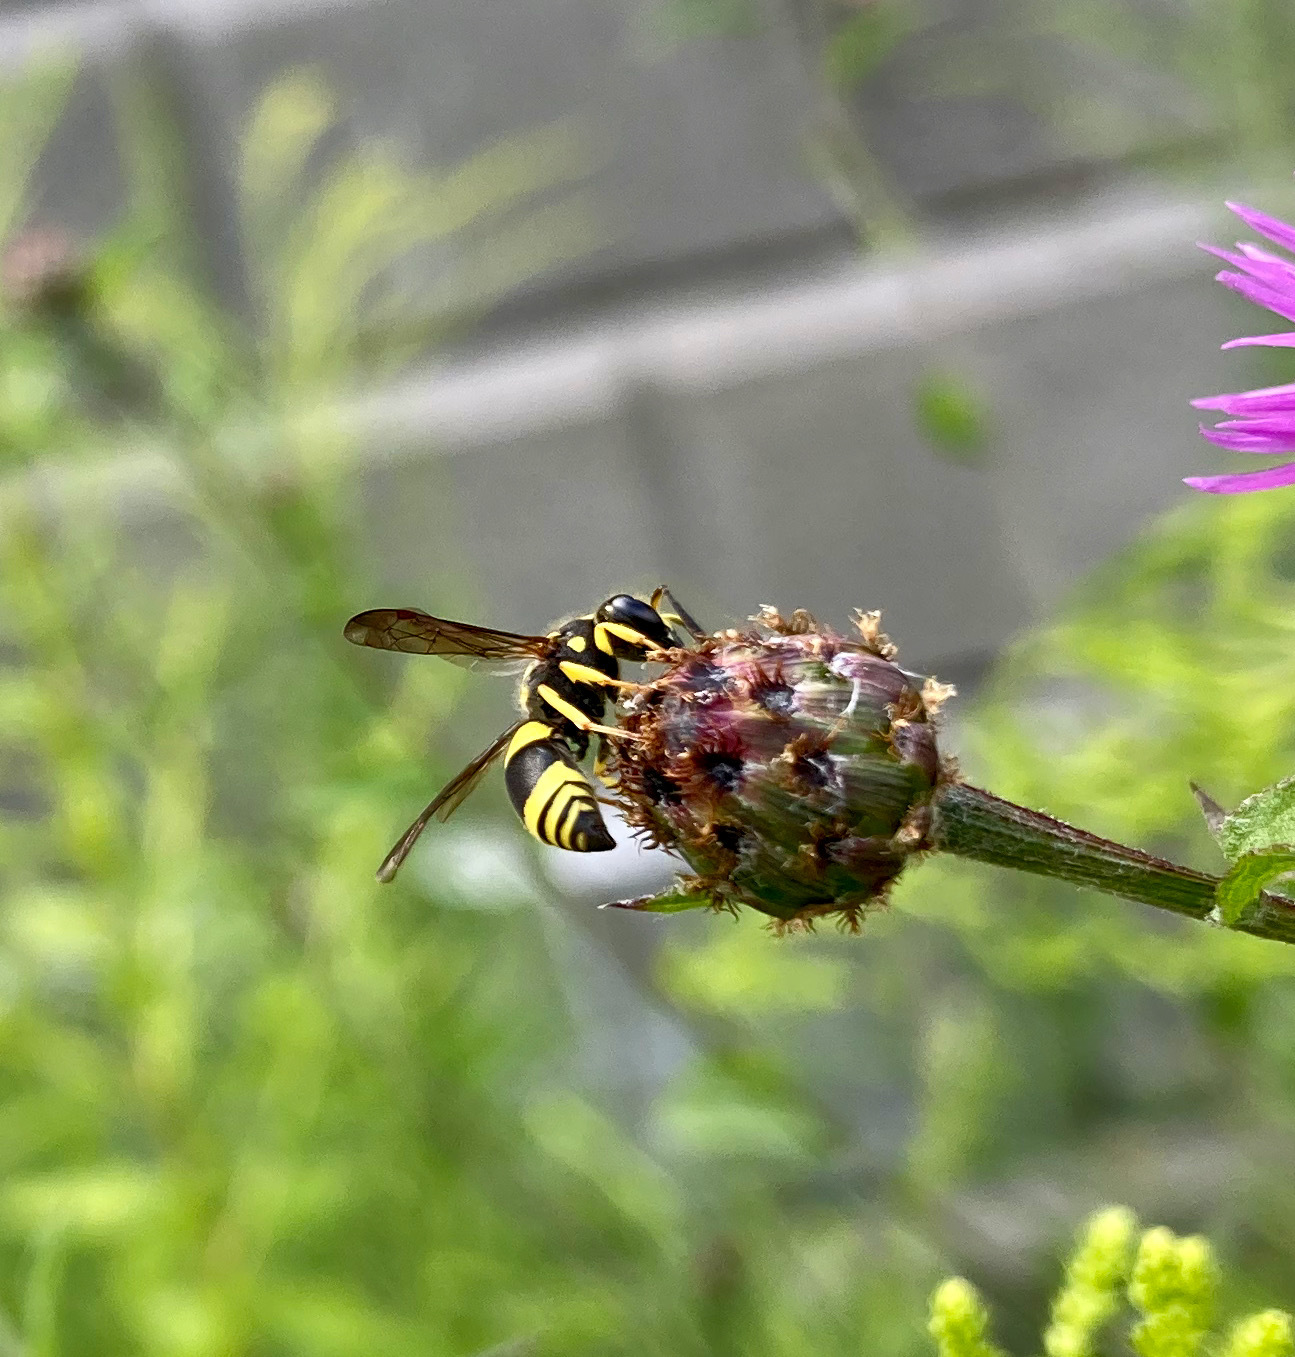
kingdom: Animalia
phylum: Arthropoda
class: Insecta
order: Hymenoptera
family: Vespidae
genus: Ancistrocerus
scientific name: Ancistrocerus gazella
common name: European tube wasp
